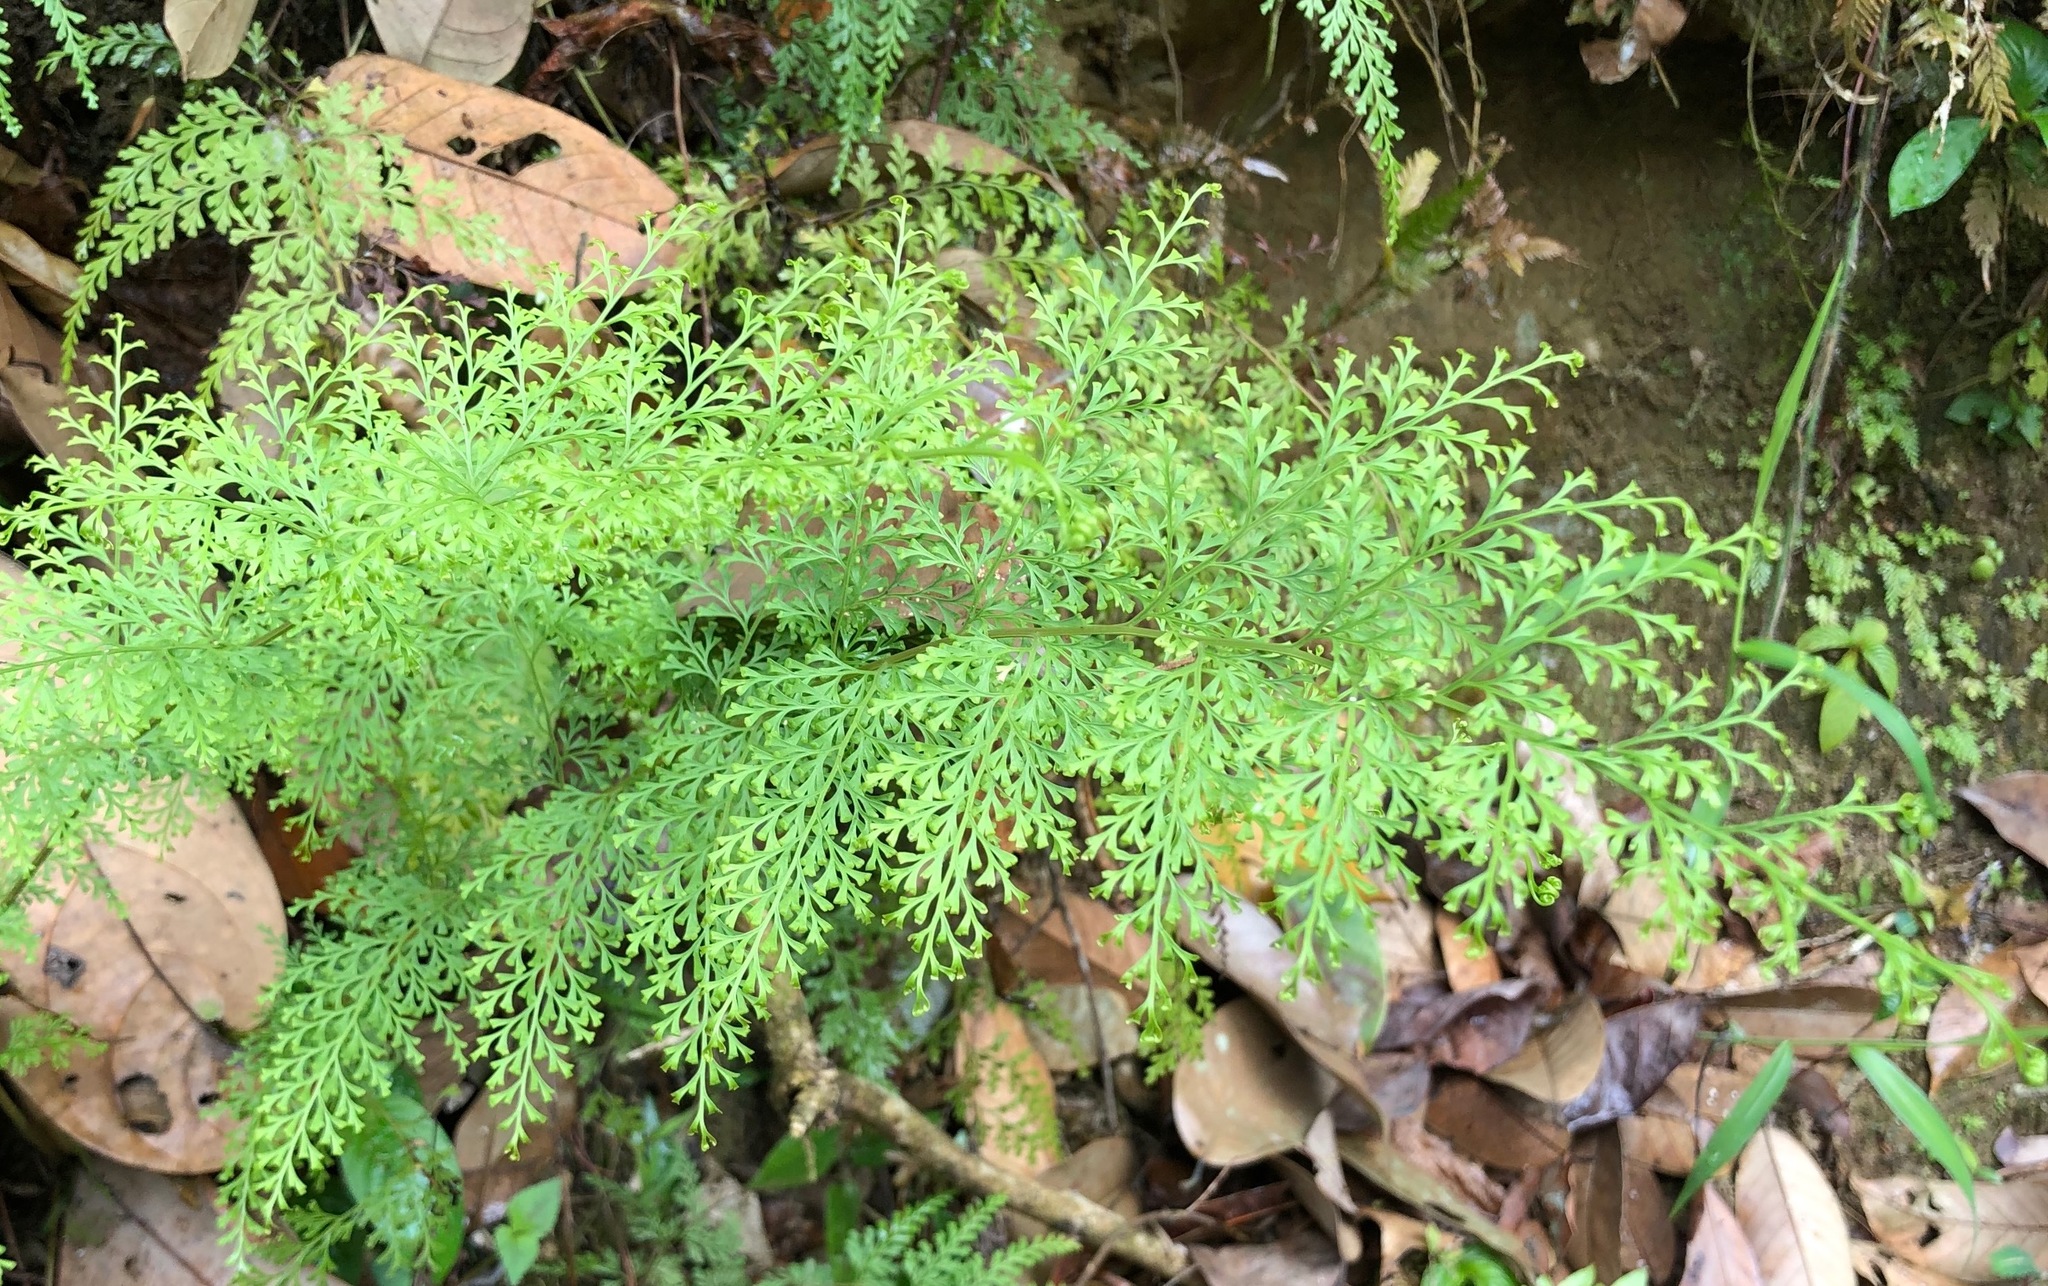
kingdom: Plantae
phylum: Tracheophyta
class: Polypodiopsida
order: Polypodiales
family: Lindsaeaceae
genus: Odontosoria
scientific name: Odontosoria chinensis
